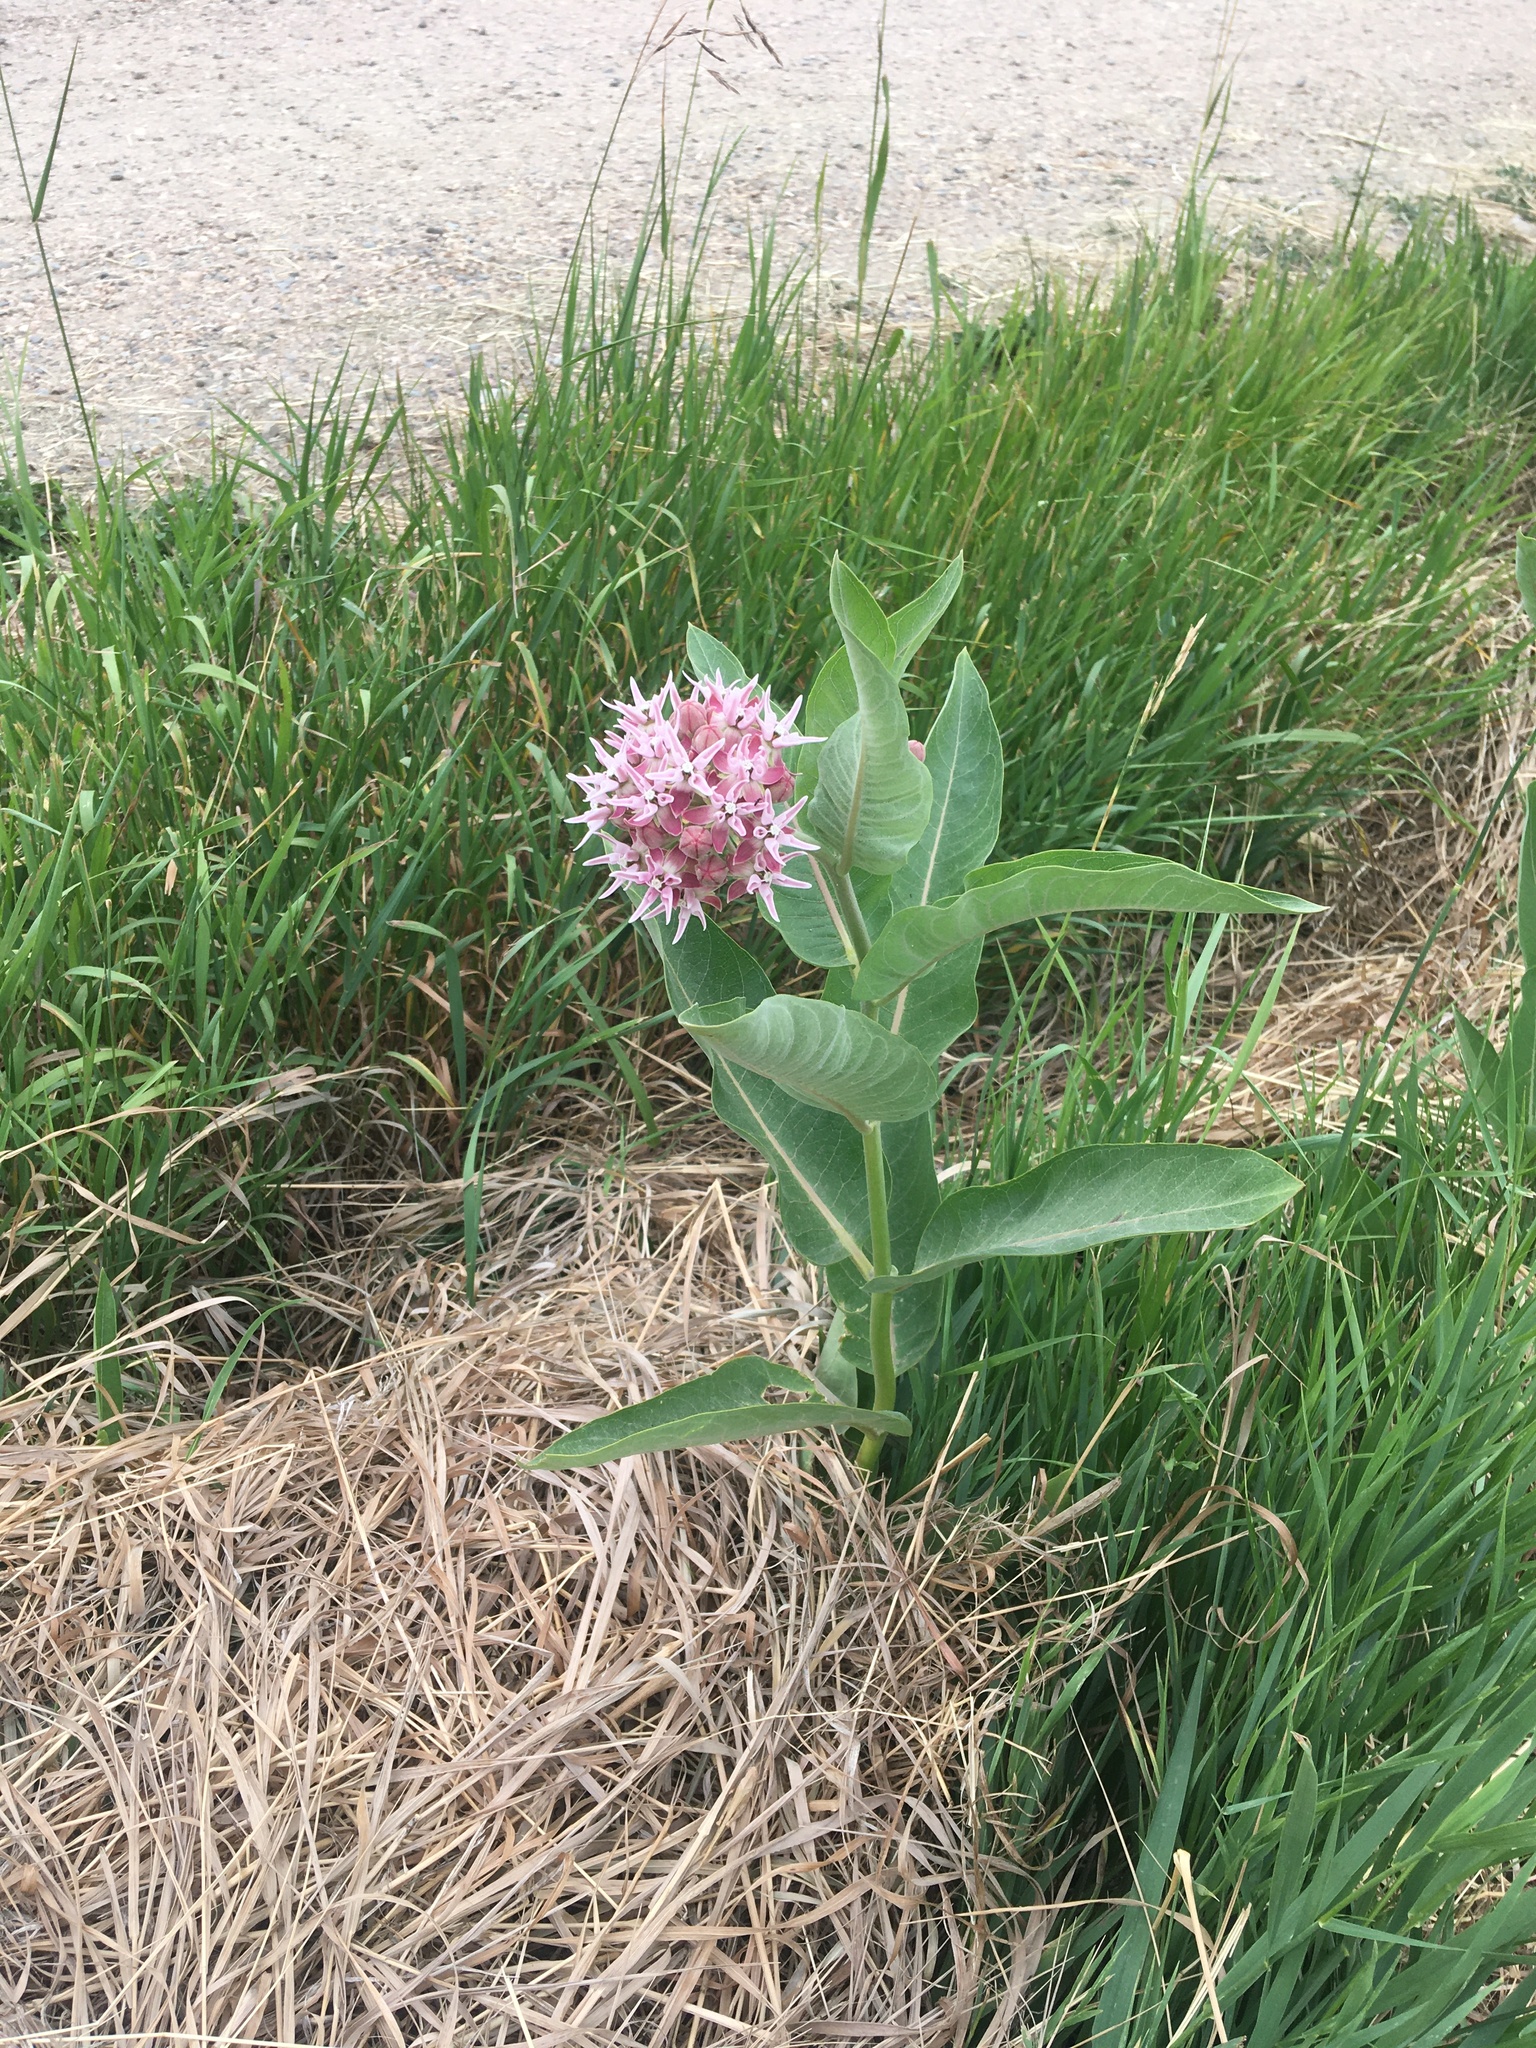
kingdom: Plantae
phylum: Tracheophyta
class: Magnoliopsida
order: Gentianales
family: Apocynaceae
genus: Asclepias
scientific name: Asclepias speciosa
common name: Showy milkweed
